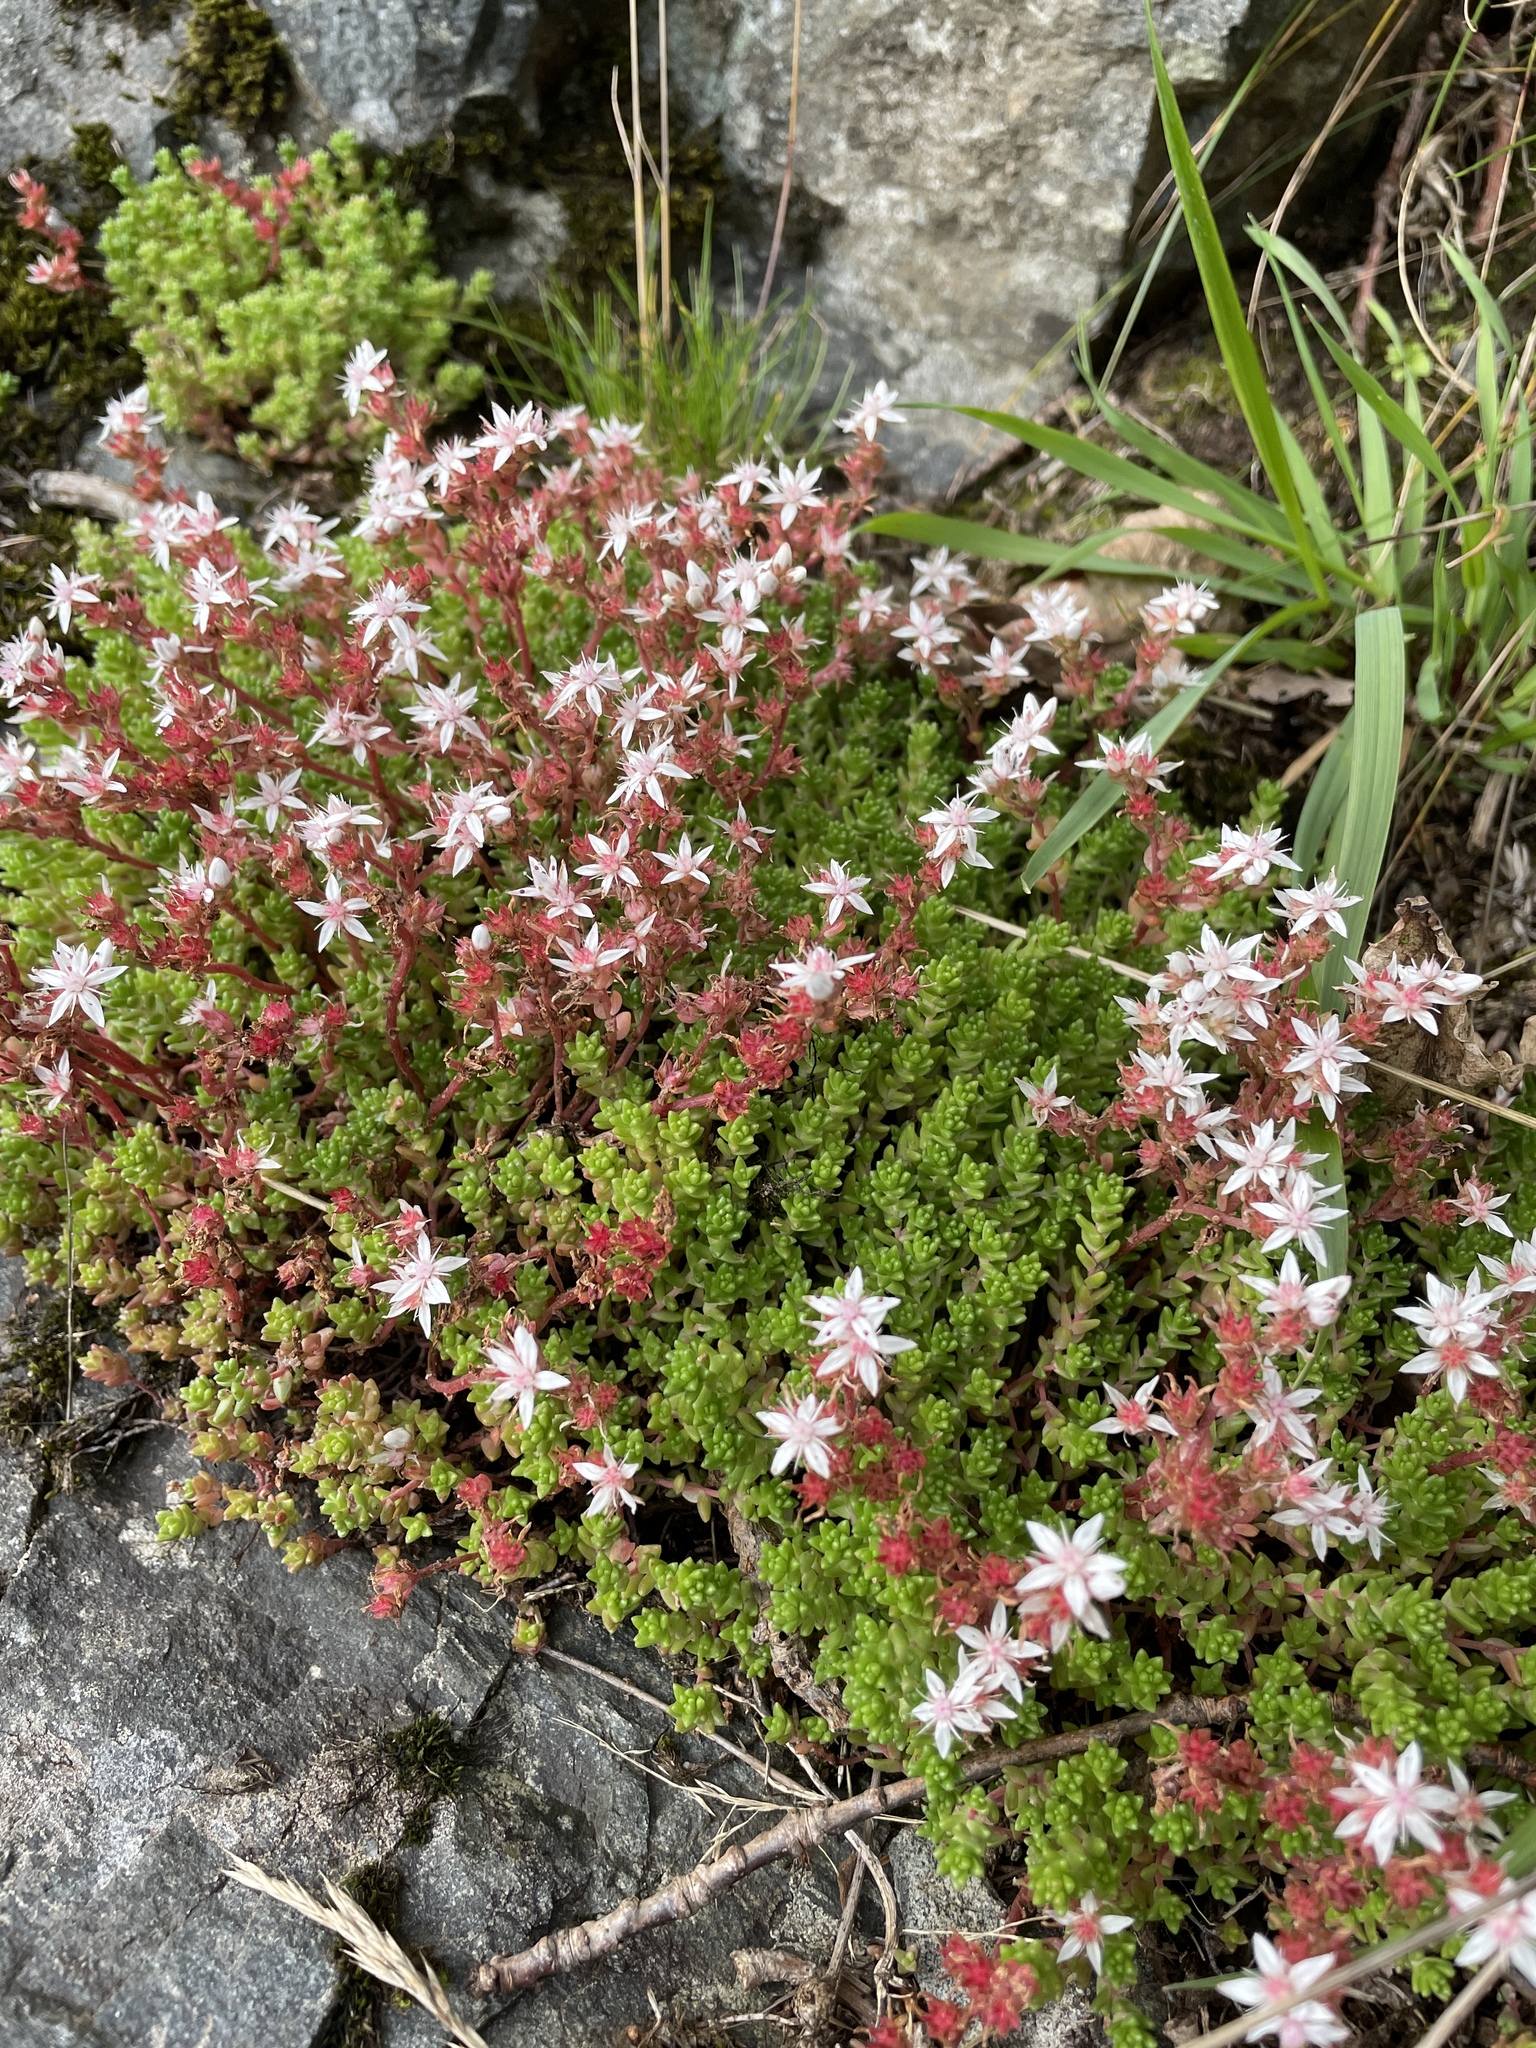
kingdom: Plantae
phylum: Tracheophyta
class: Magnoliopsida
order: Saxifragales
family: Crassulaceae
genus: Sedum
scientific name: Sedum anglicum
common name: English stonecrop
